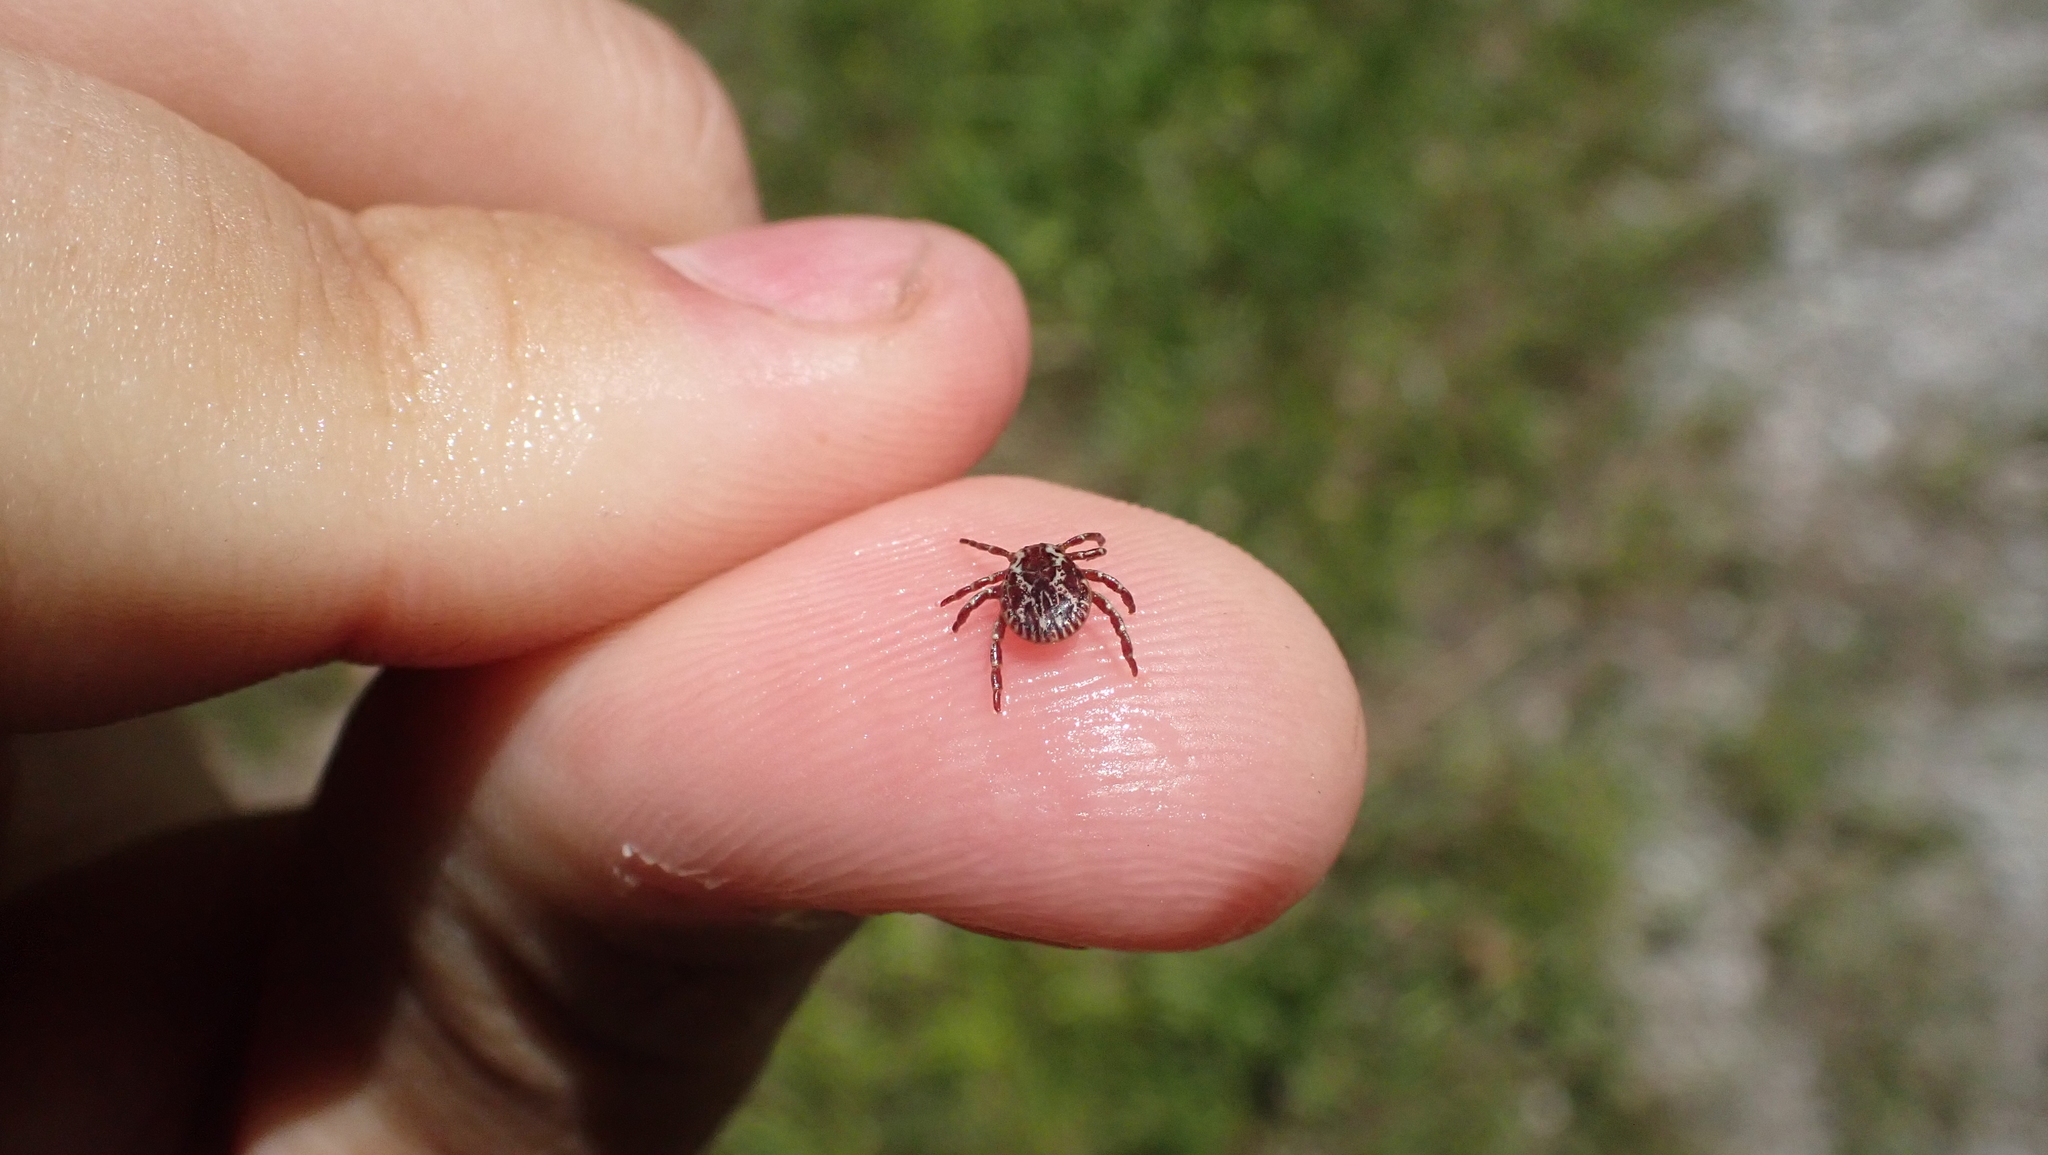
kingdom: Animalia
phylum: Arthropoda
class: Arachnida
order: Ixodida
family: Ixodidae
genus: Dermacentor
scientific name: Dermacentor variabilis
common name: American dog tick
